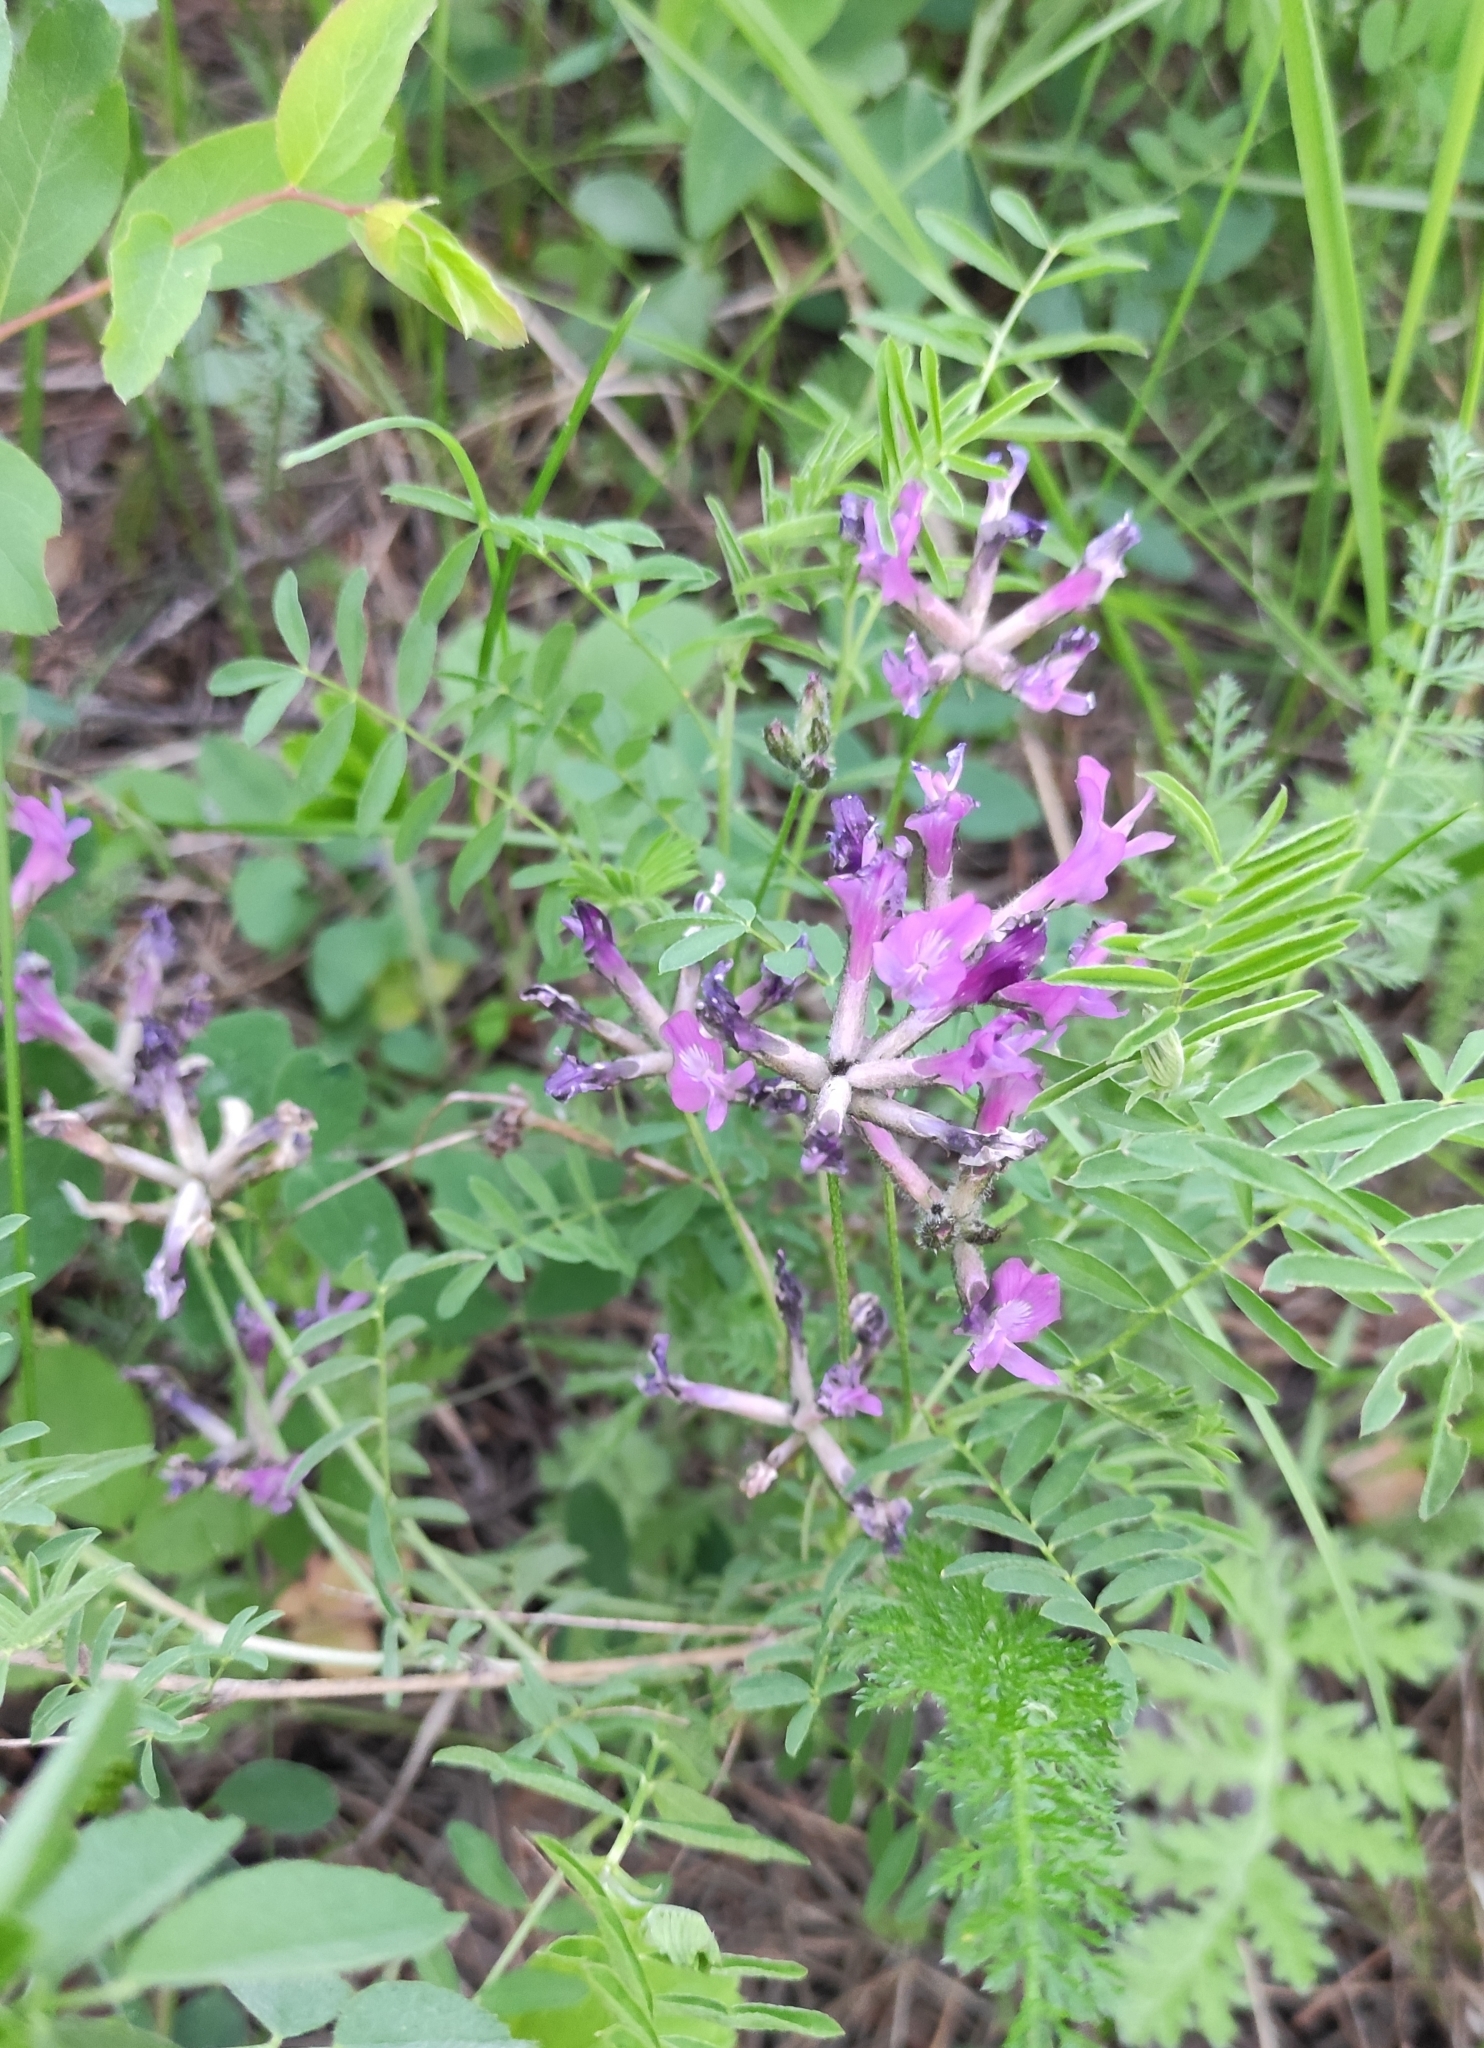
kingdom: Plantae
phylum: Tracheophyta
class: Magnoliopsida
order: Fabales
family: Fabaceae
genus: Astragalus
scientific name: Astragalus syriacus
